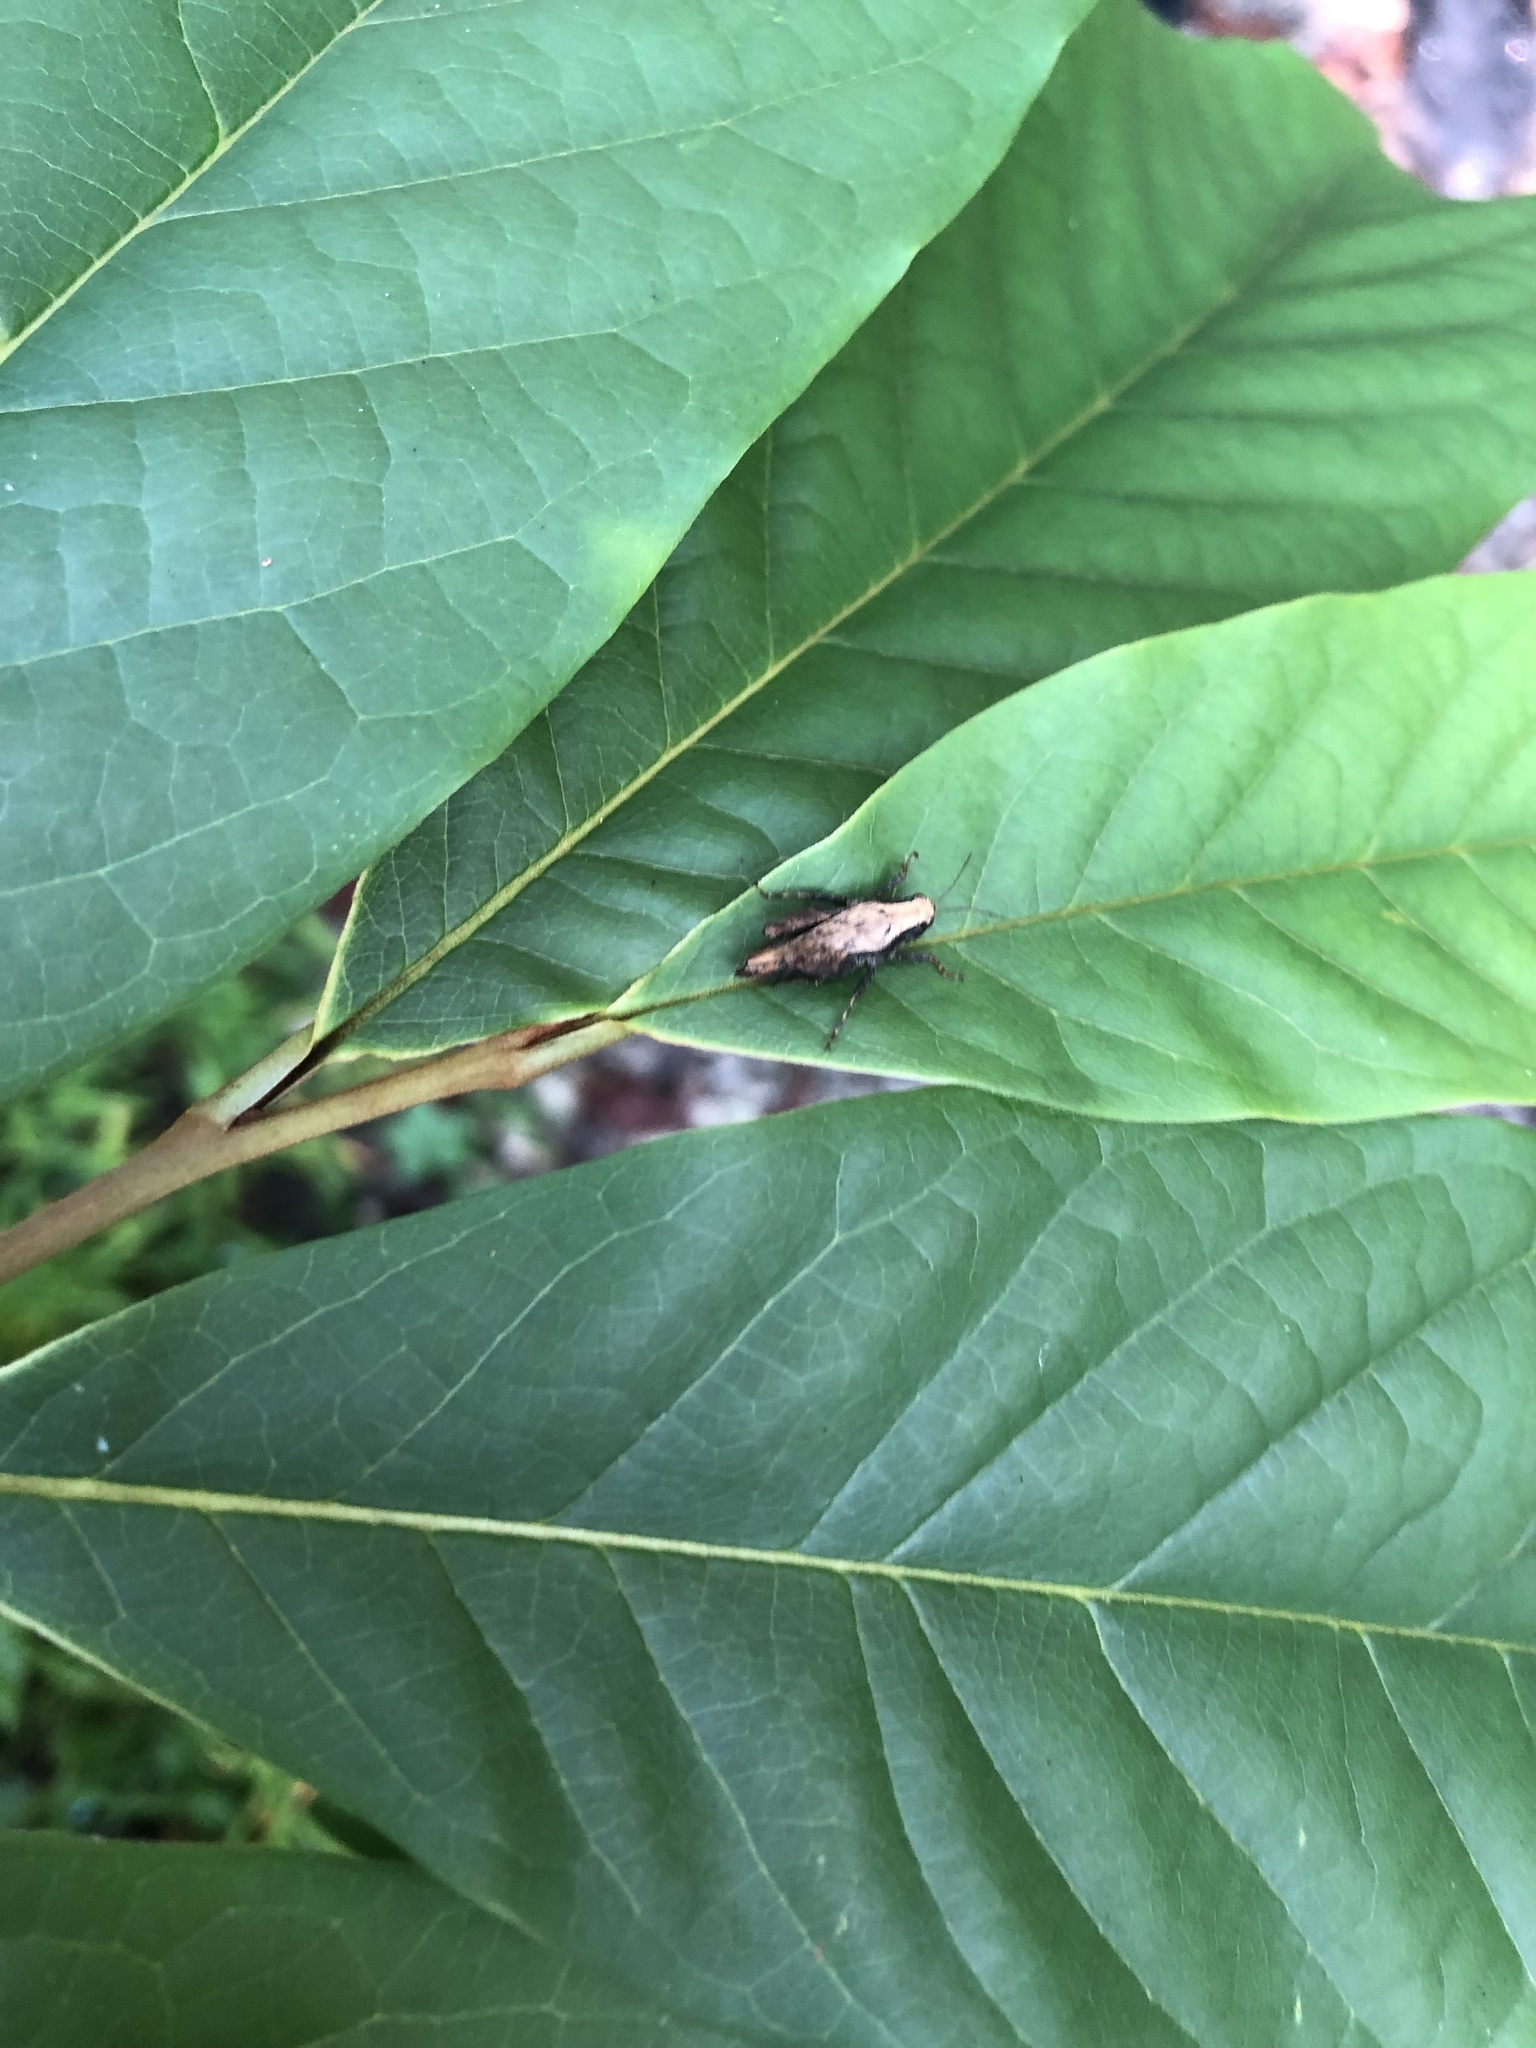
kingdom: Animalia
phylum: Arthropoda
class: Insecta
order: Orthoptera
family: Tetrigidae
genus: Tettigidea
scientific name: Tettigidea laterale
